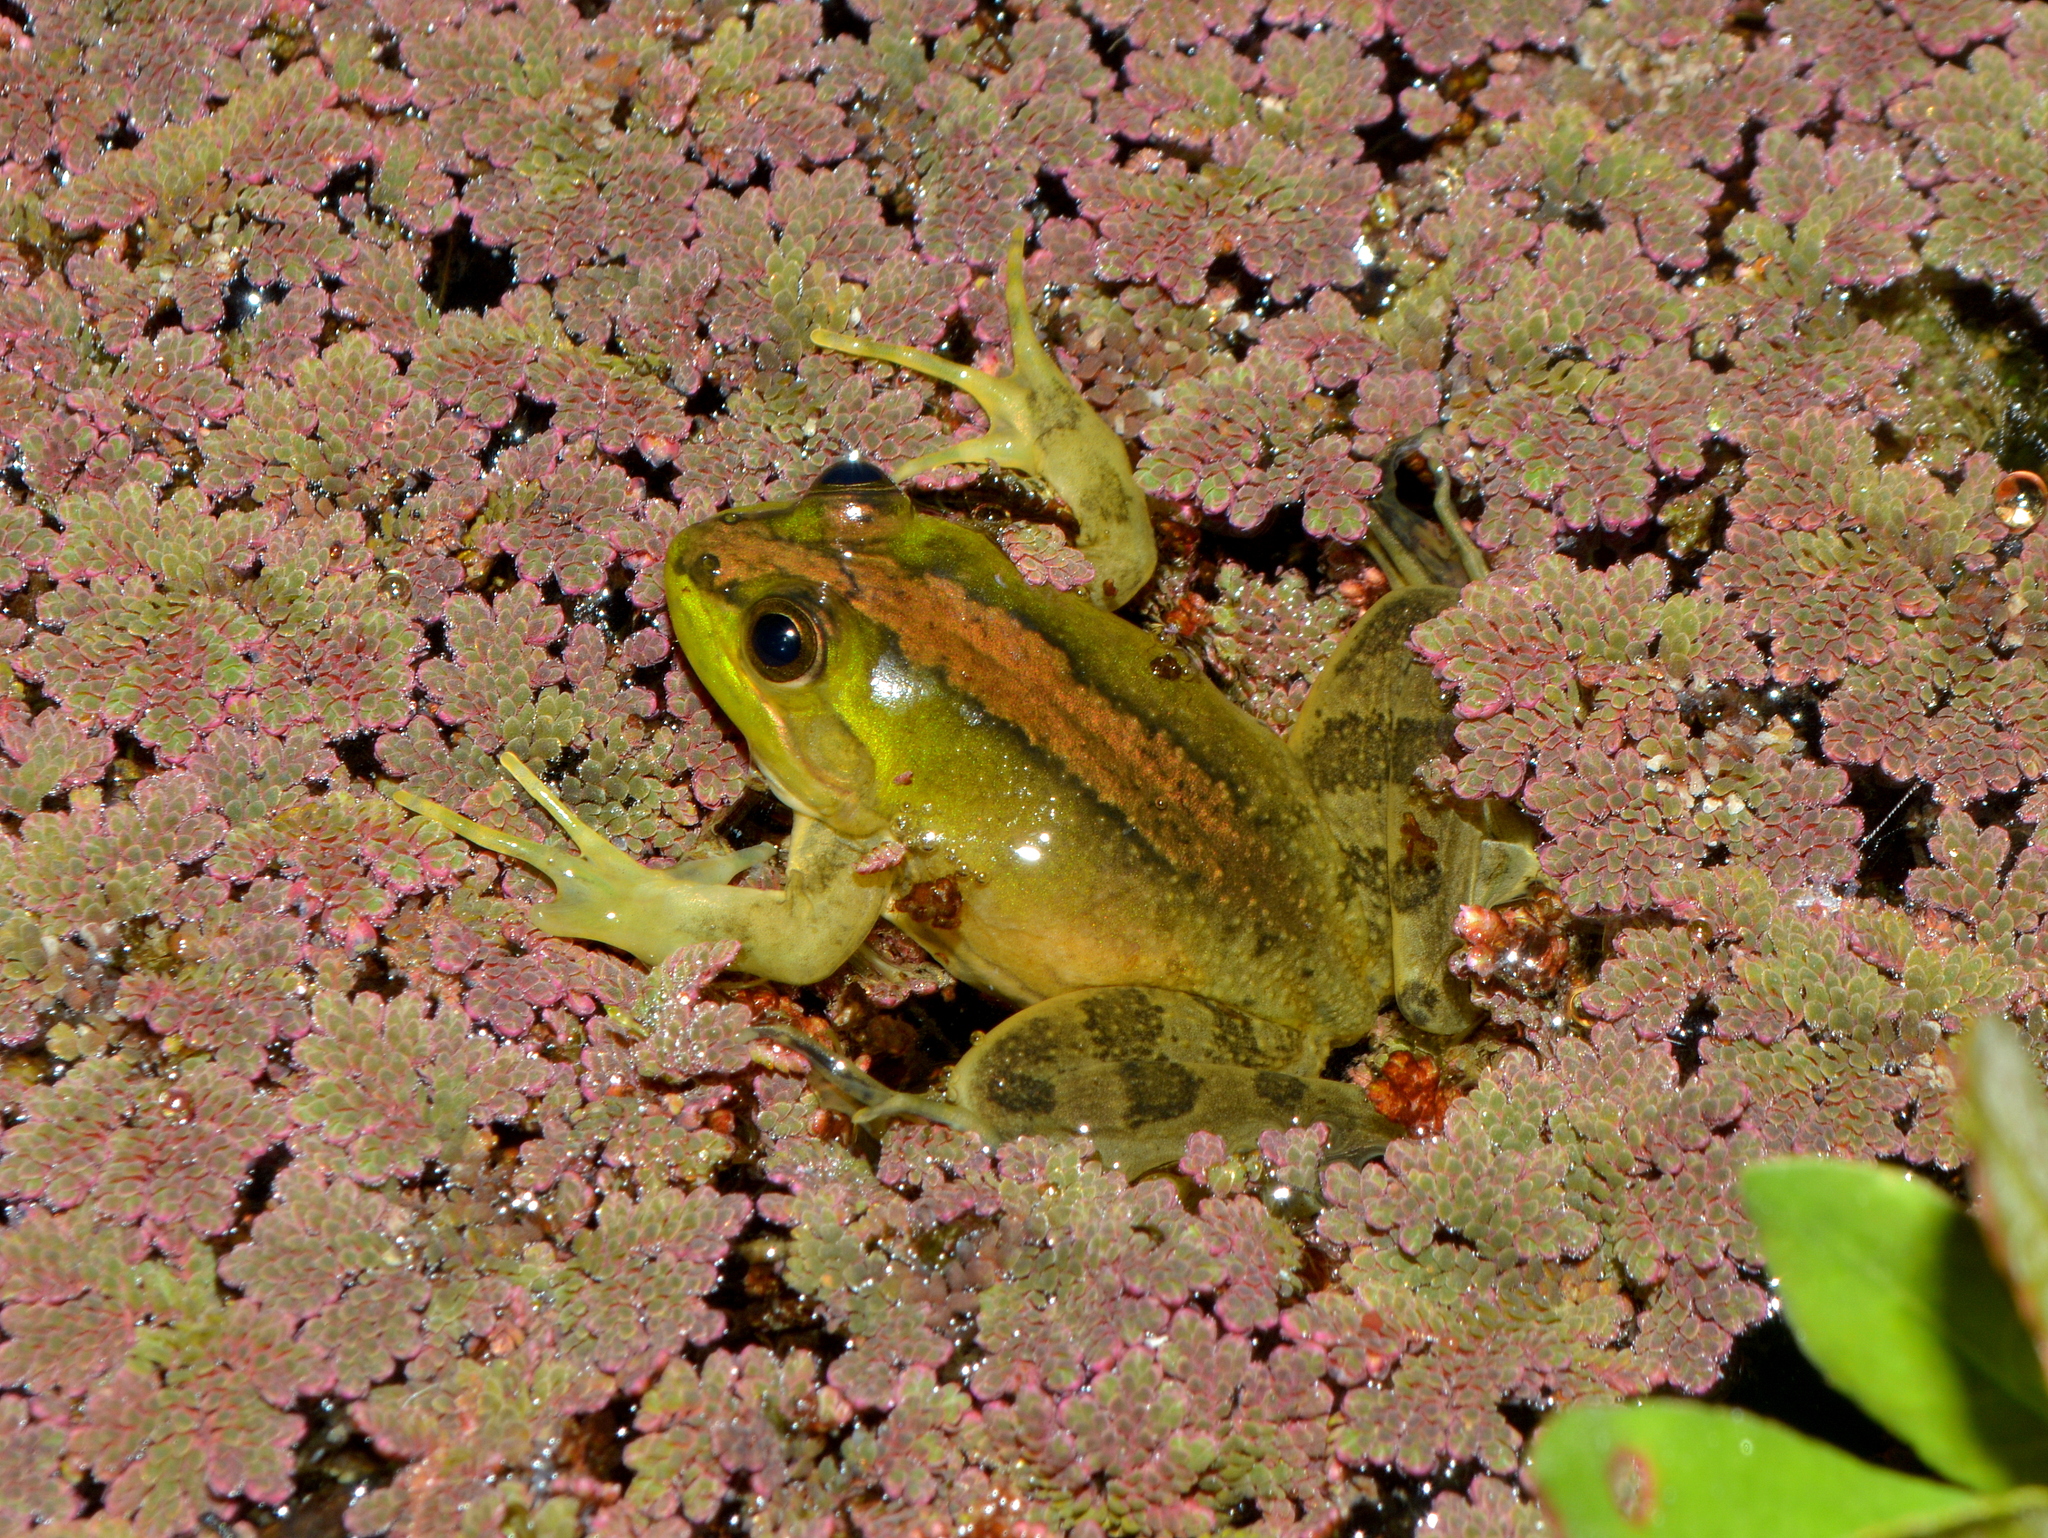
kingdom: Animalia
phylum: Chordata
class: Amphibia
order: Anura
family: Hylidae
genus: Pseudis
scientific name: Pseudis minuta
